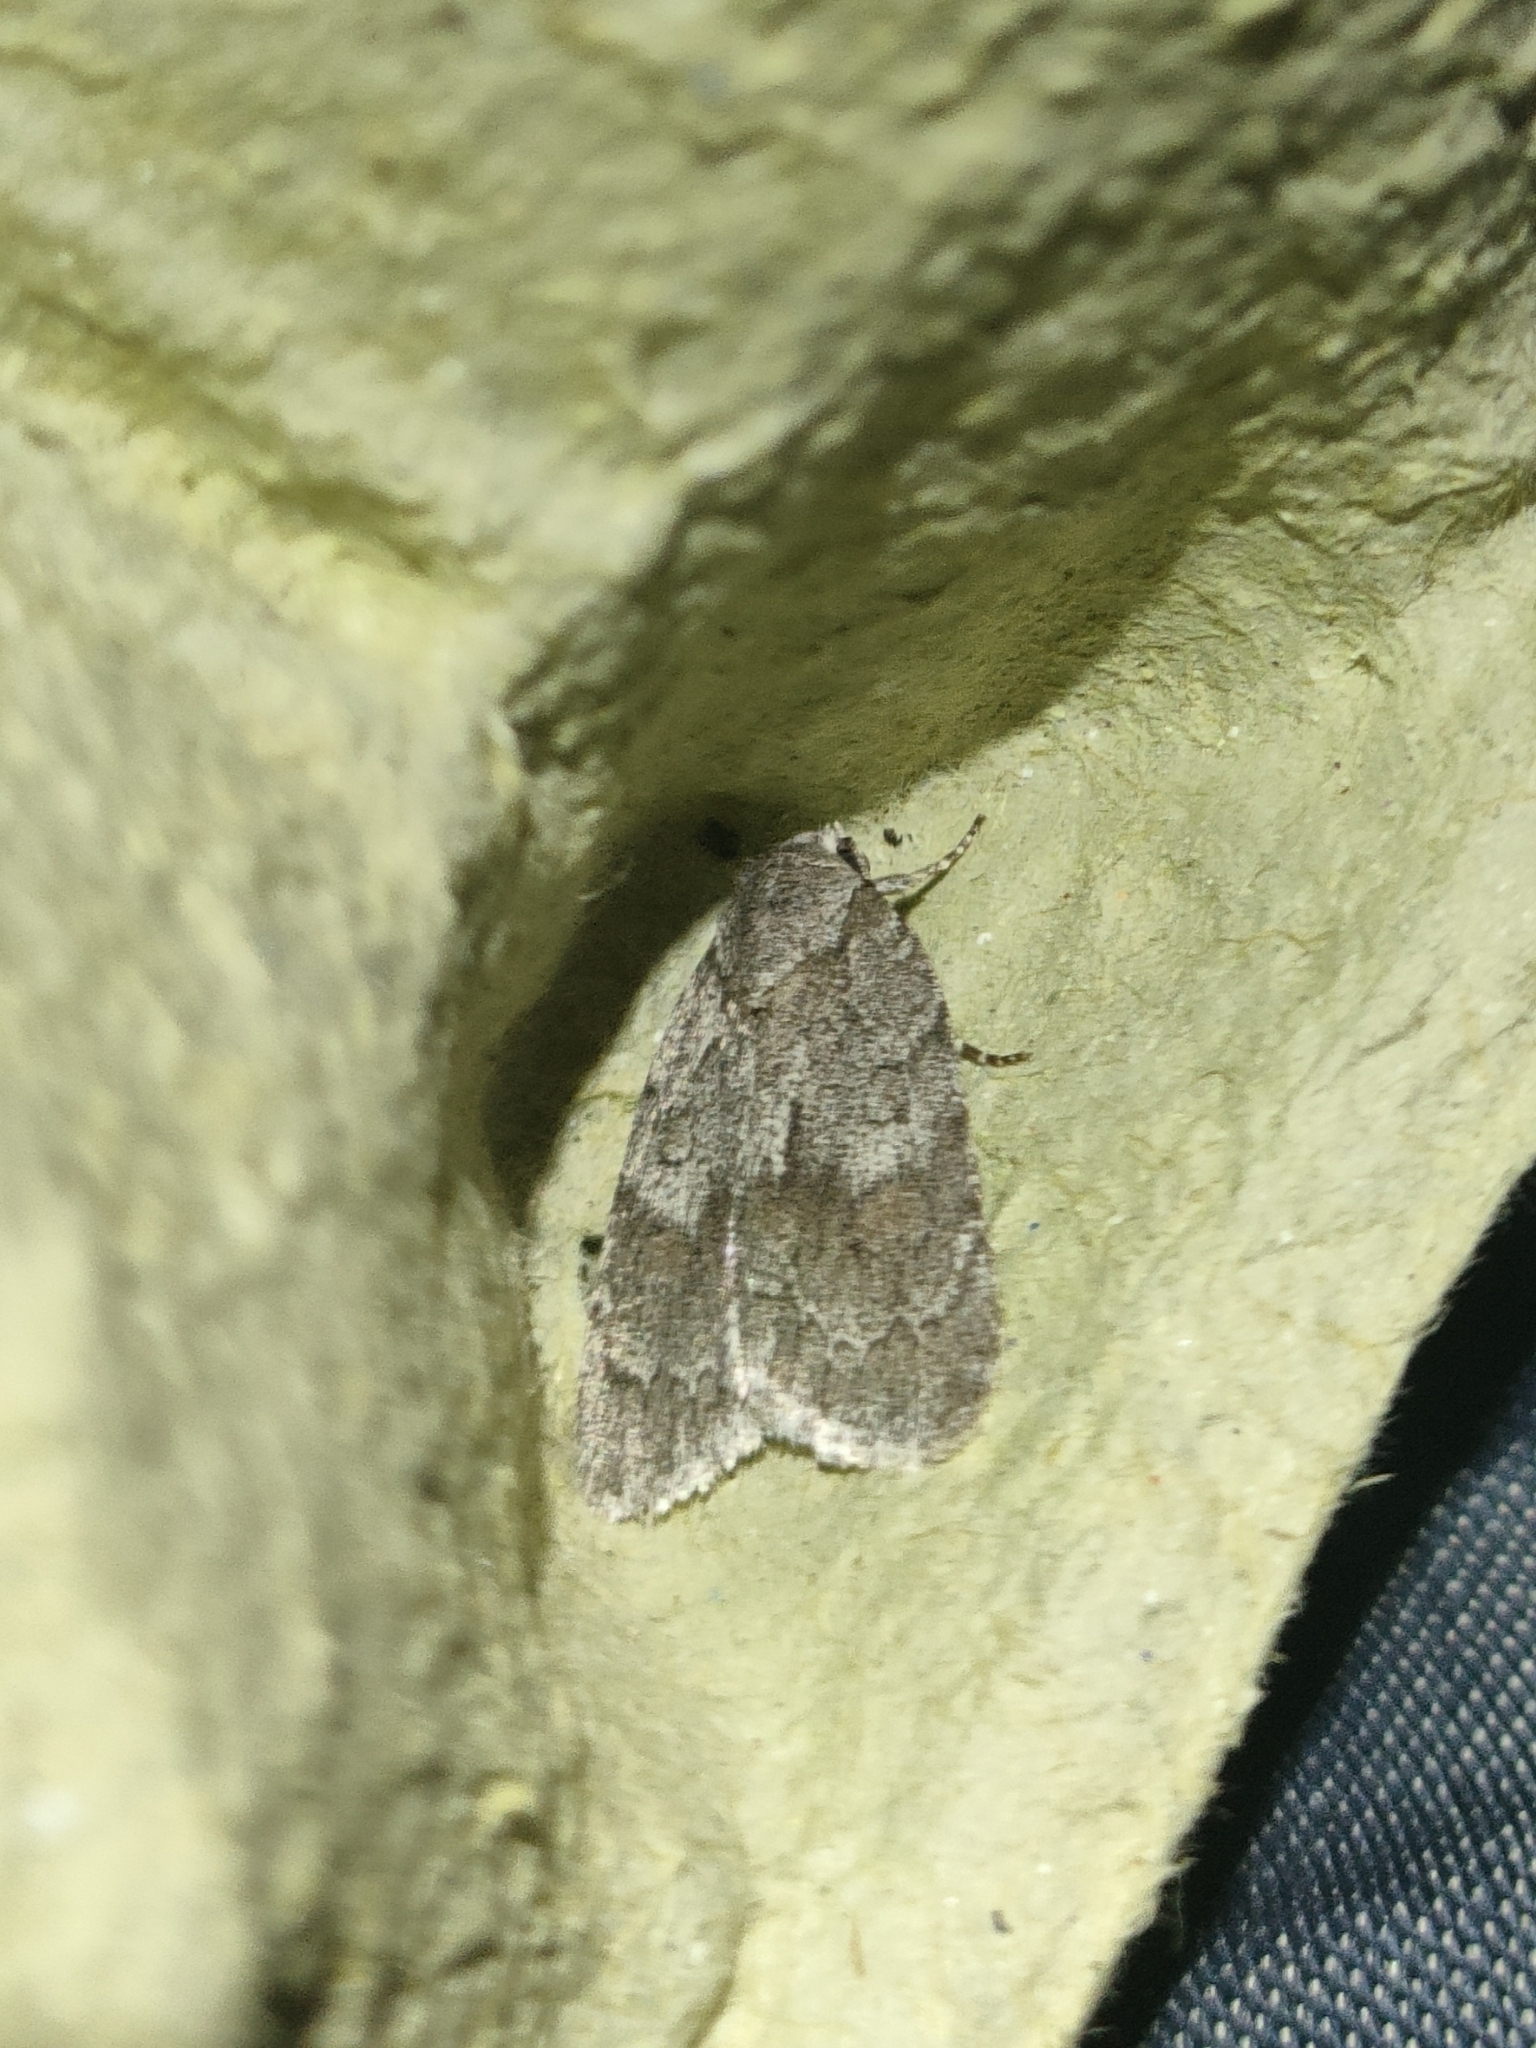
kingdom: Animalia
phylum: Arthropoda
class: Insecta
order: Lepidoptera
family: Noctuidae
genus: Bryonycta
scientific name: Bryonycta pineti
